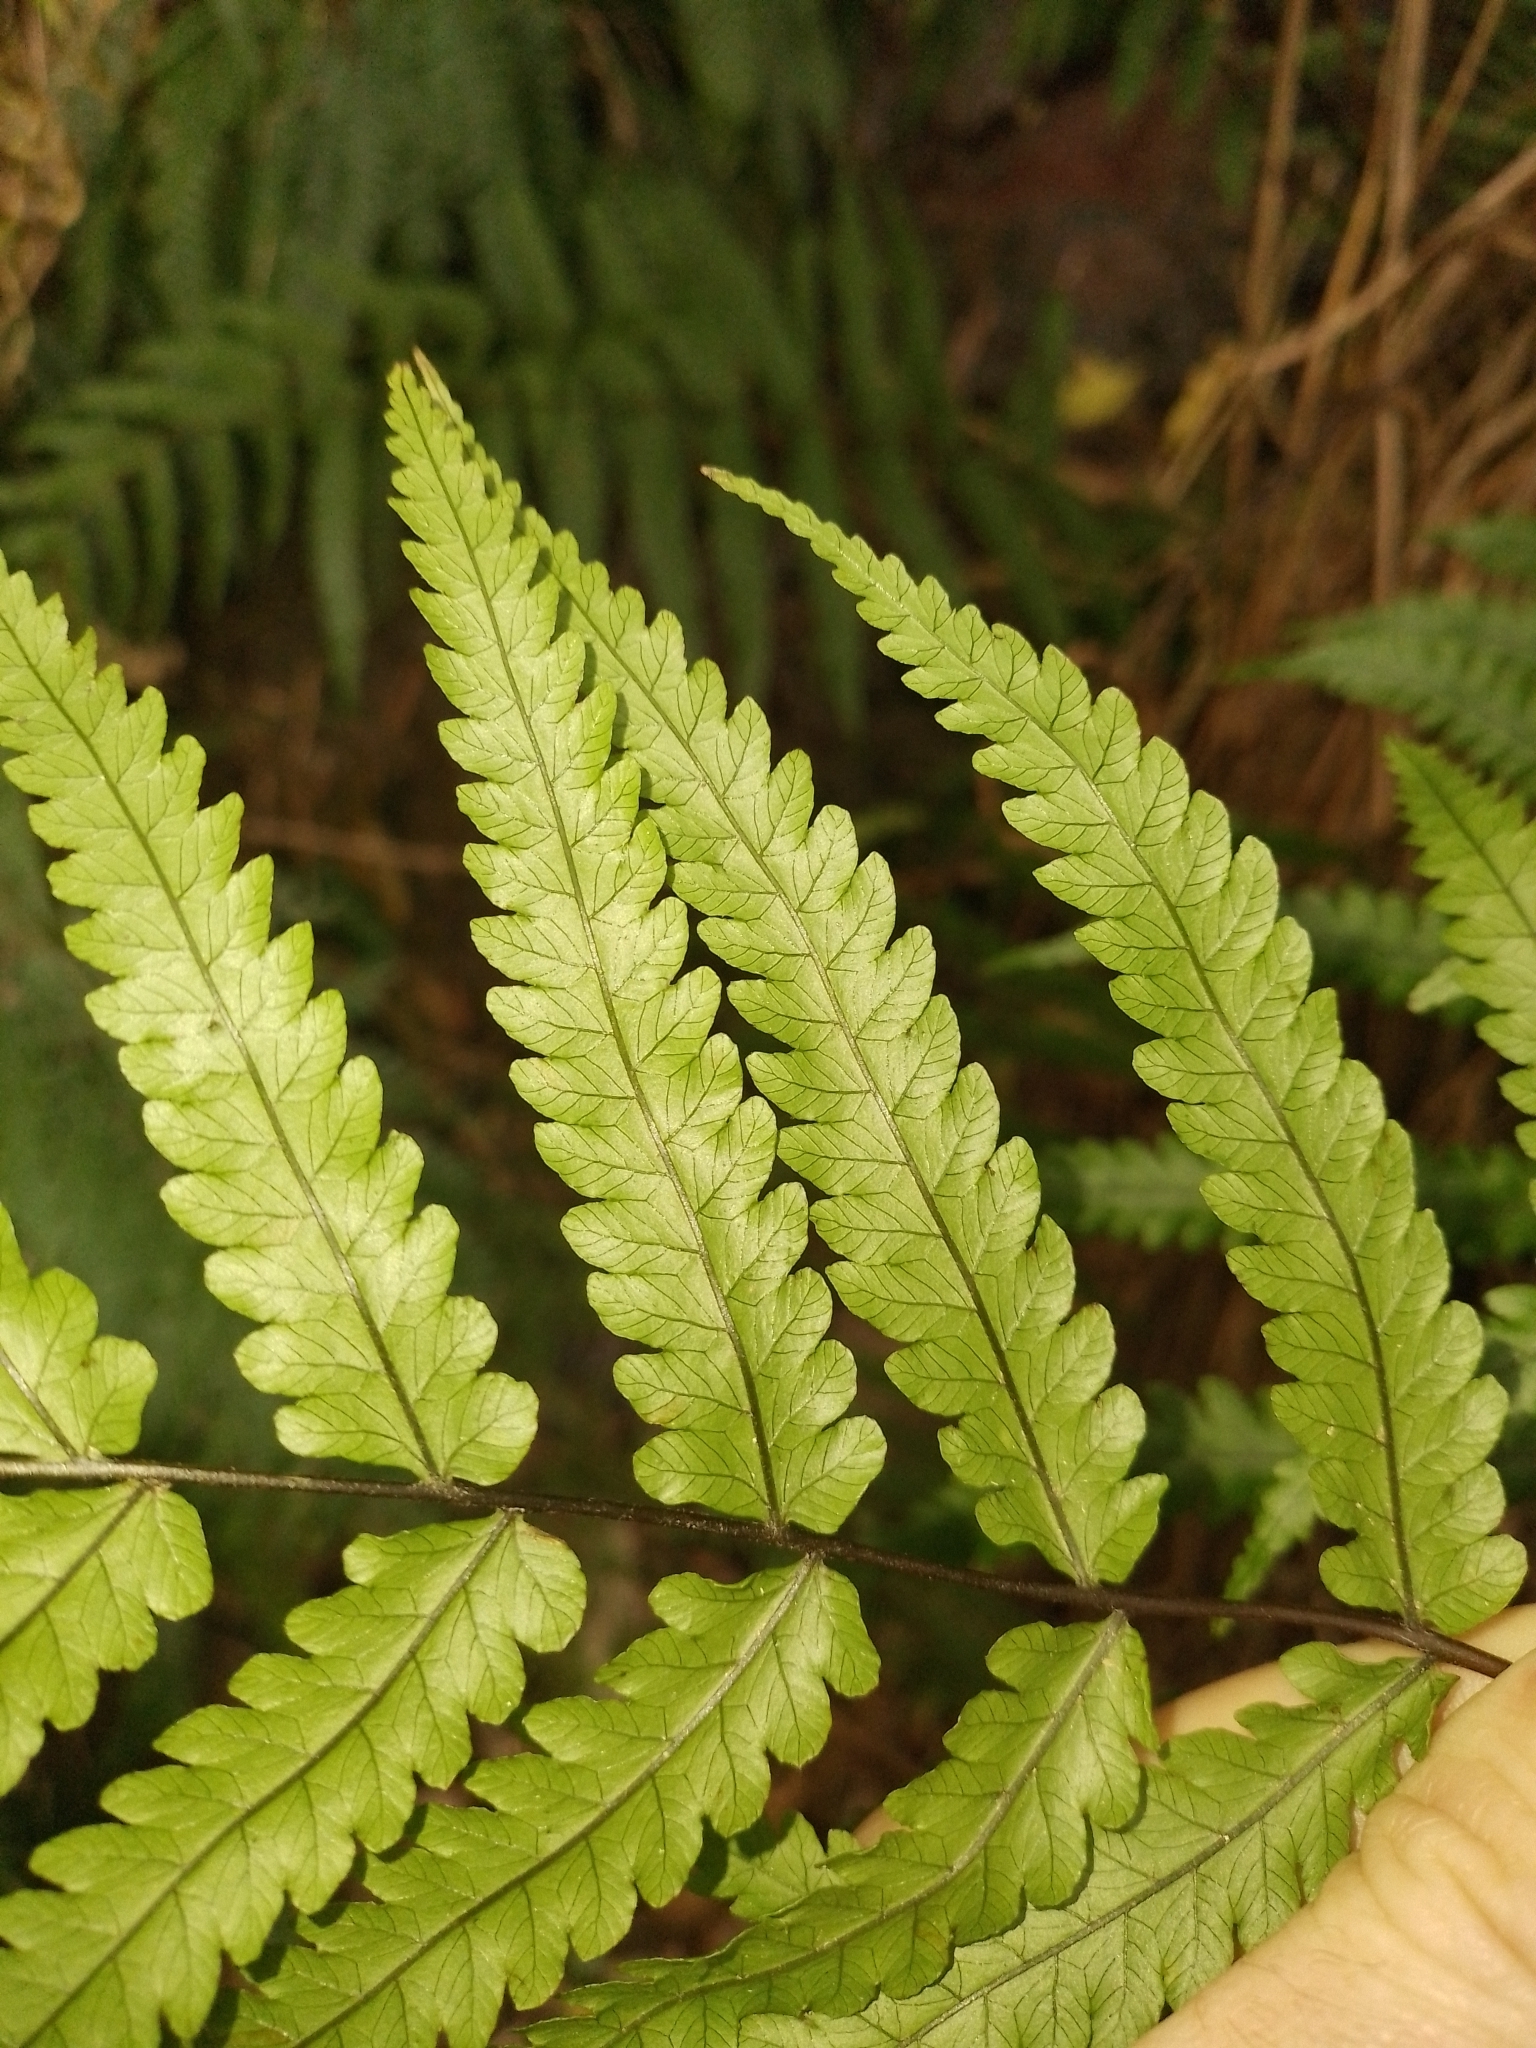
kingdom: Plantae
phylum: Tracheophyta
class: Polypodiopsida
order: Polypodiales
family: Thelypteridaceae
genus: Pakau
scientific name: Pakau pennigera
